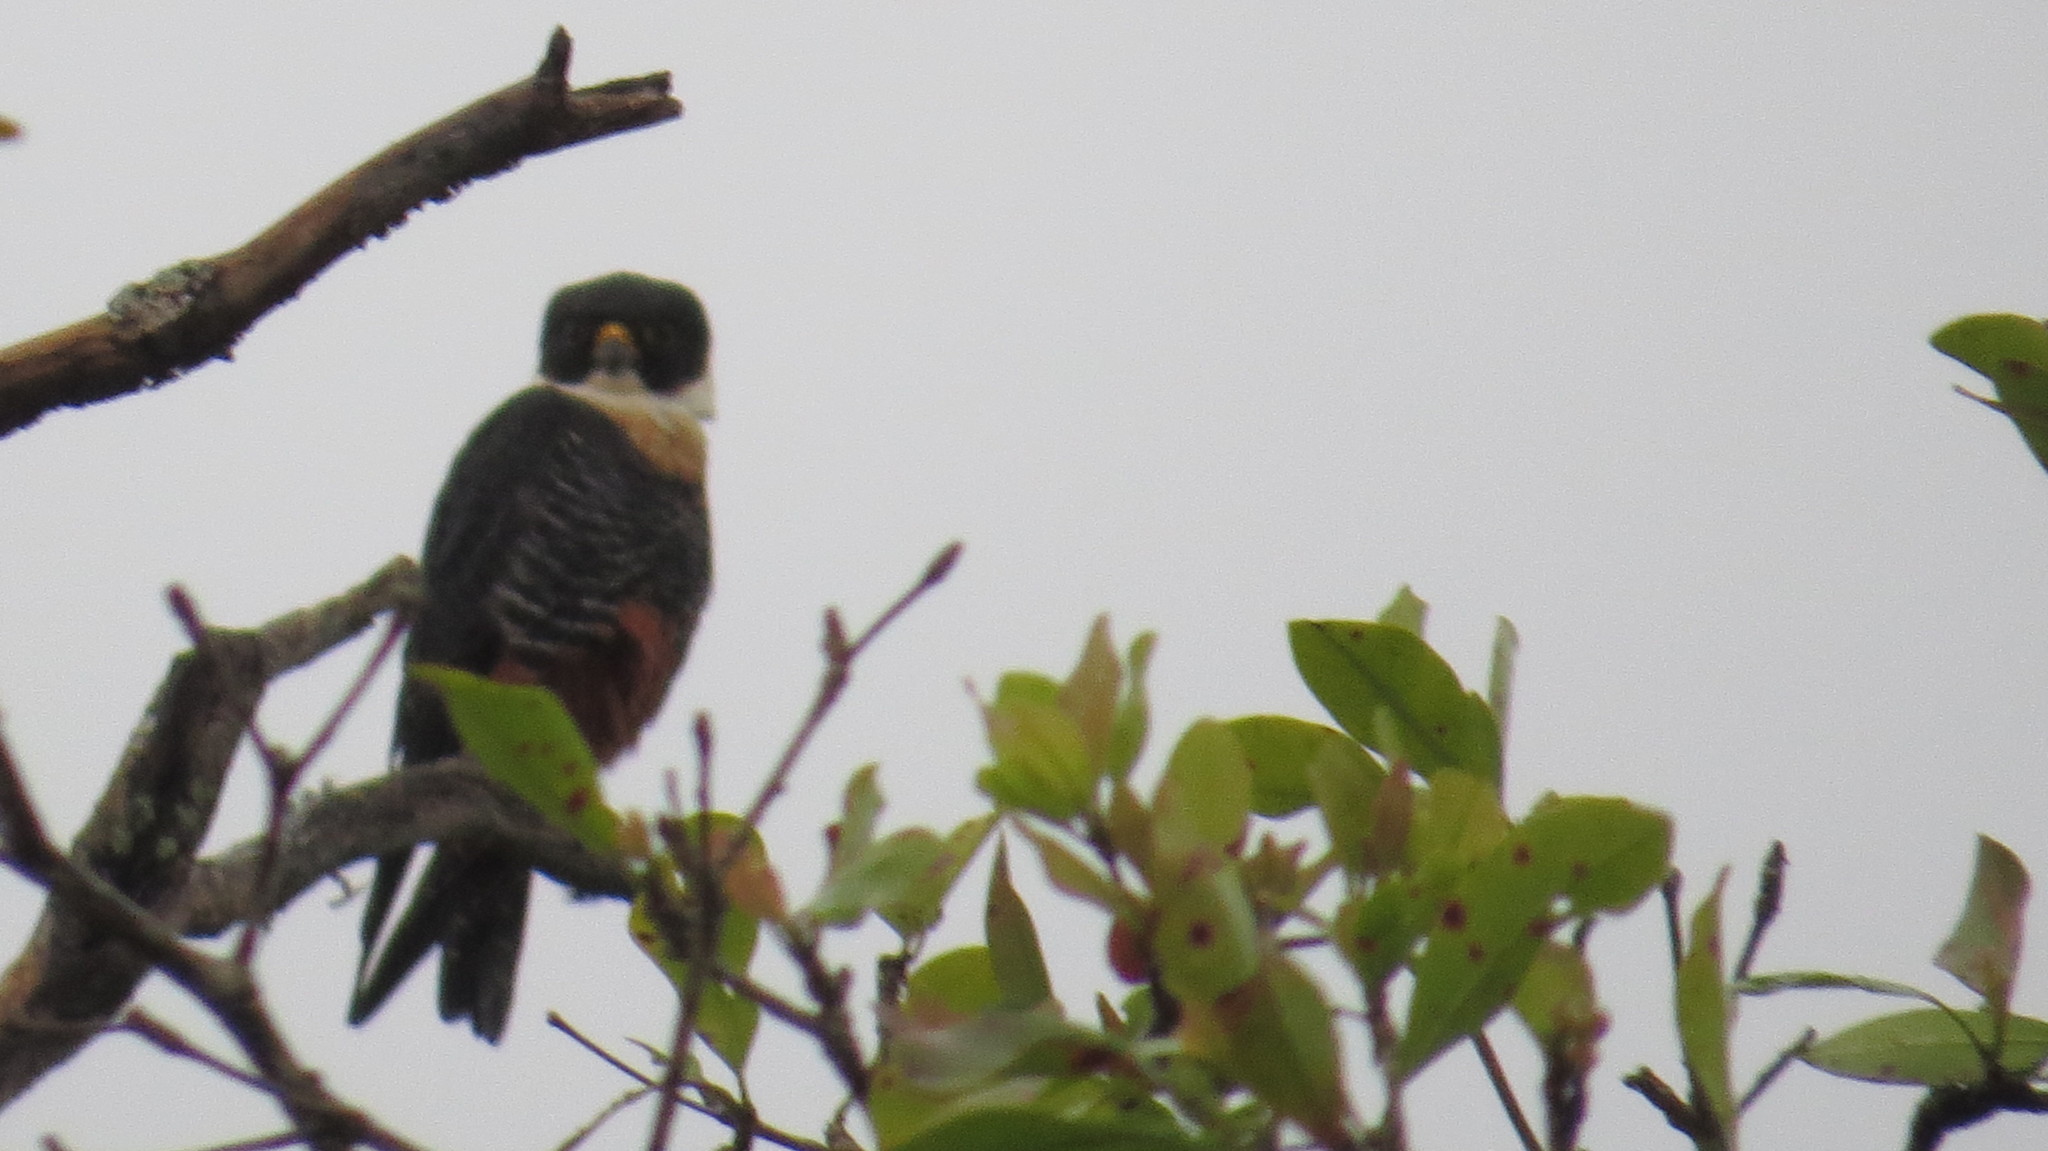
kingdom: Animalia
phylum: Chordata
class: Aves
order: Falconiformes
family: Falconidae
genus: Falco
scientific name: Falco rufigularis
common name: Bat falcon
